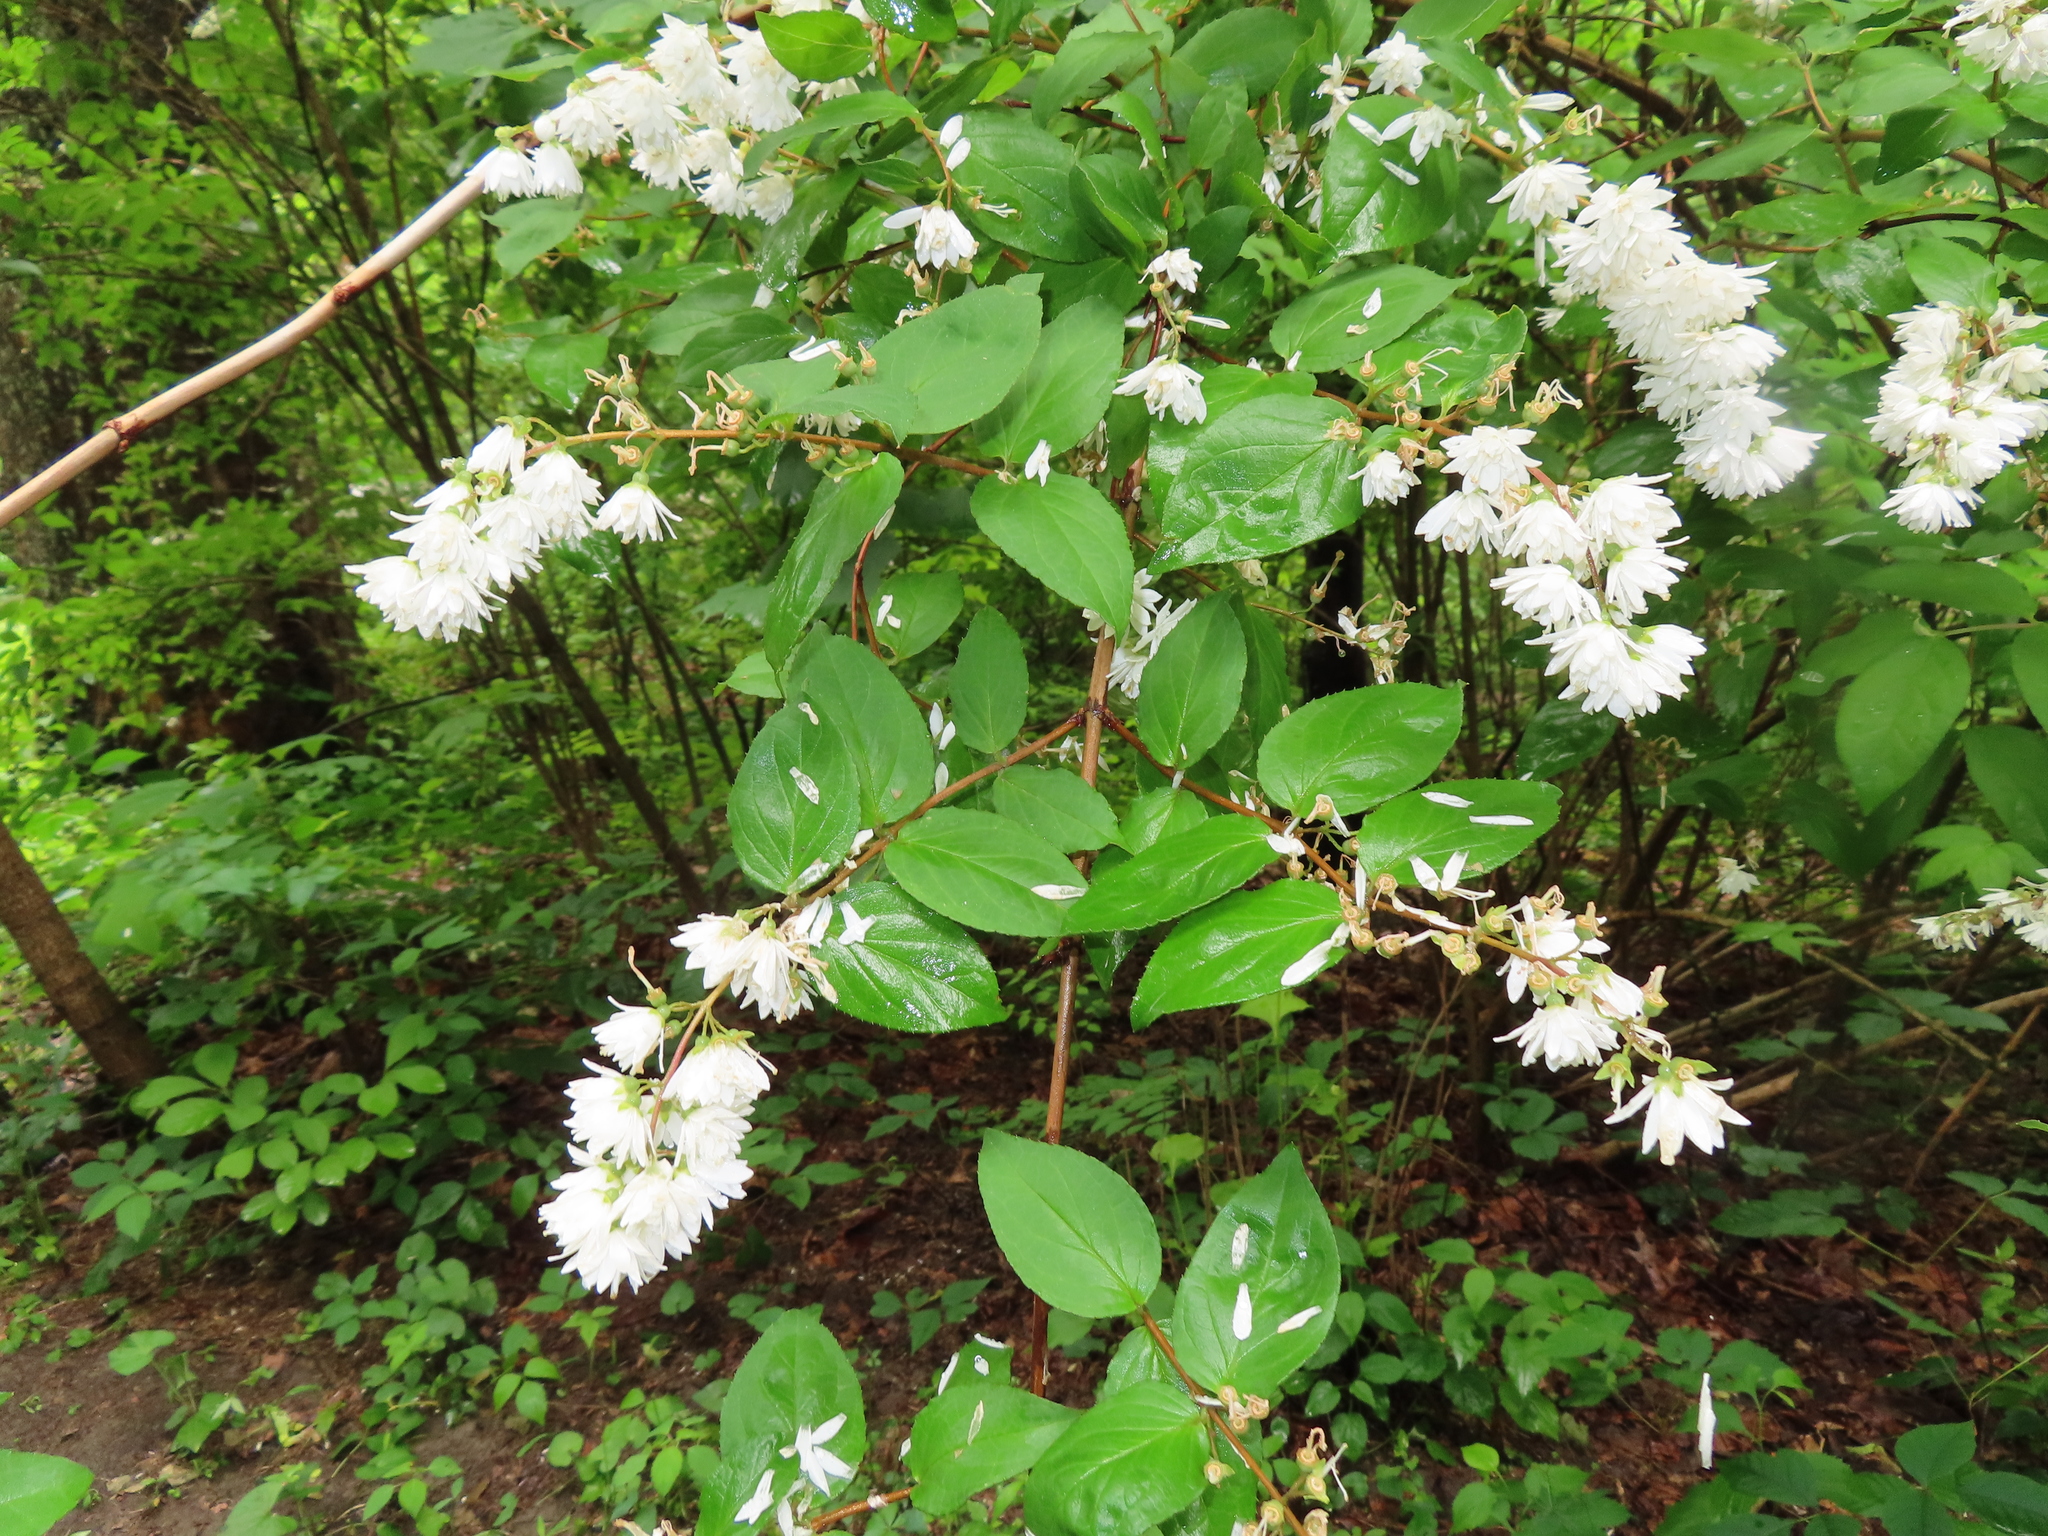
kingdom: Plantae
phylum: Tracheophyta
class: Magnoliopsida
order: Cornales
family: Hydrangeaceae
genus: Deutzia
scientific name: Deutzia scabra
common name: Deutzia
